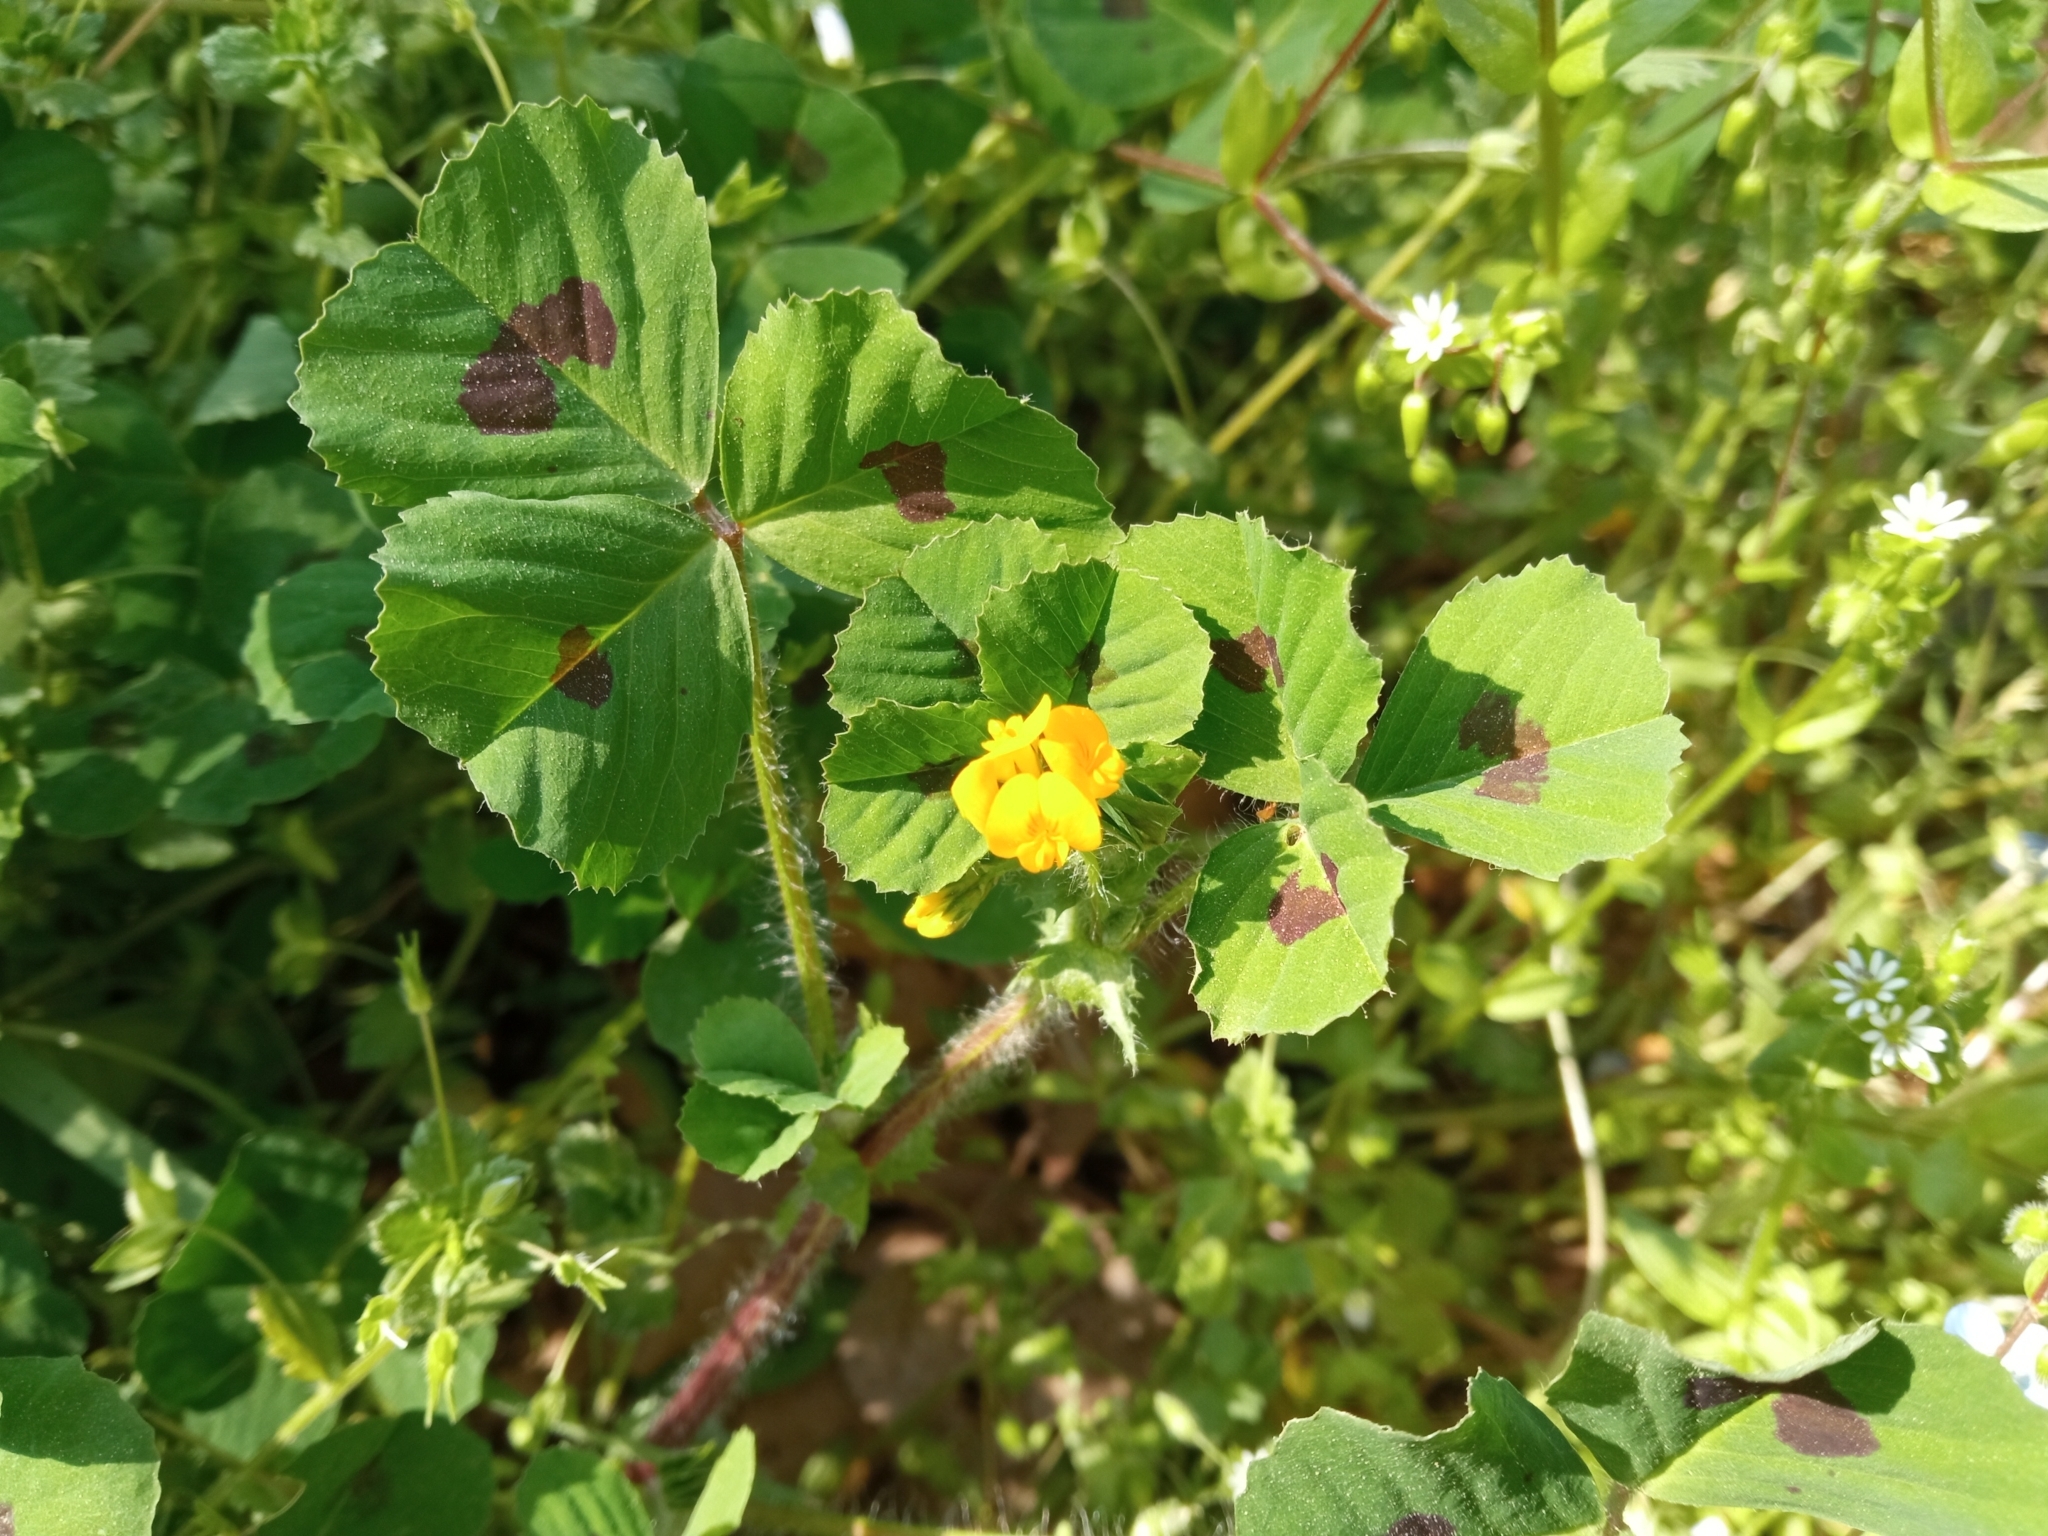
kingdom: Plantae
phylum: Tracheophyta
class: Magnoliopsida
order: Fabales
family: Fabaceae
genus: Medicago
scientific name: Medicago arabica
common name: Spotted medick
